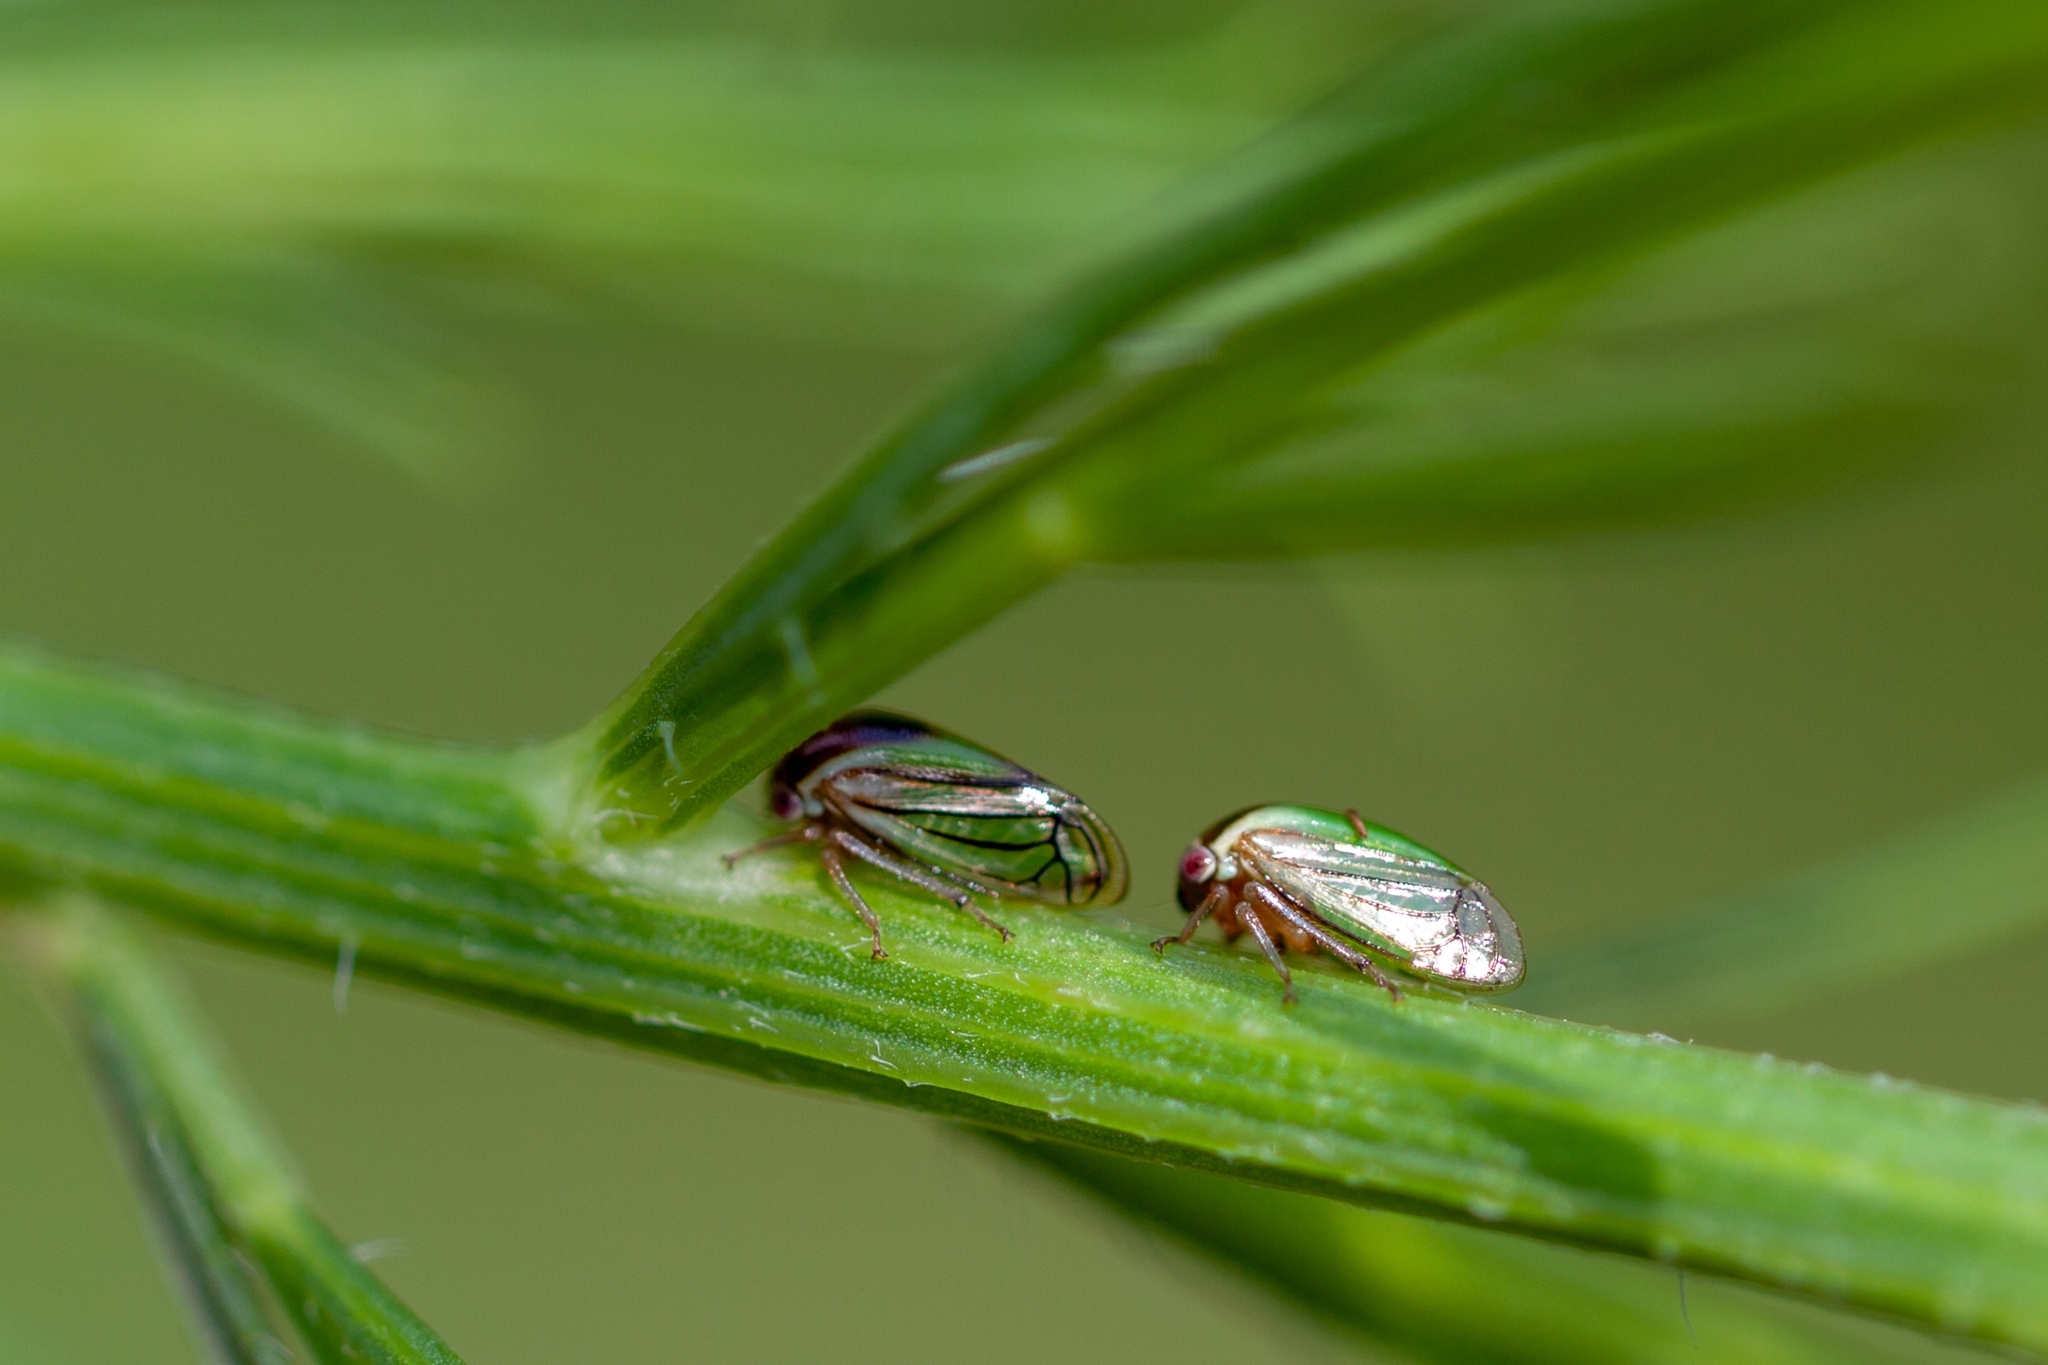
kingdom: Animalia
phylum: Arthropoda
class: Insecta
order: Hemiptera
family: Membracidae
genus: Acutalis
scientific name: Acutalis tartarea
